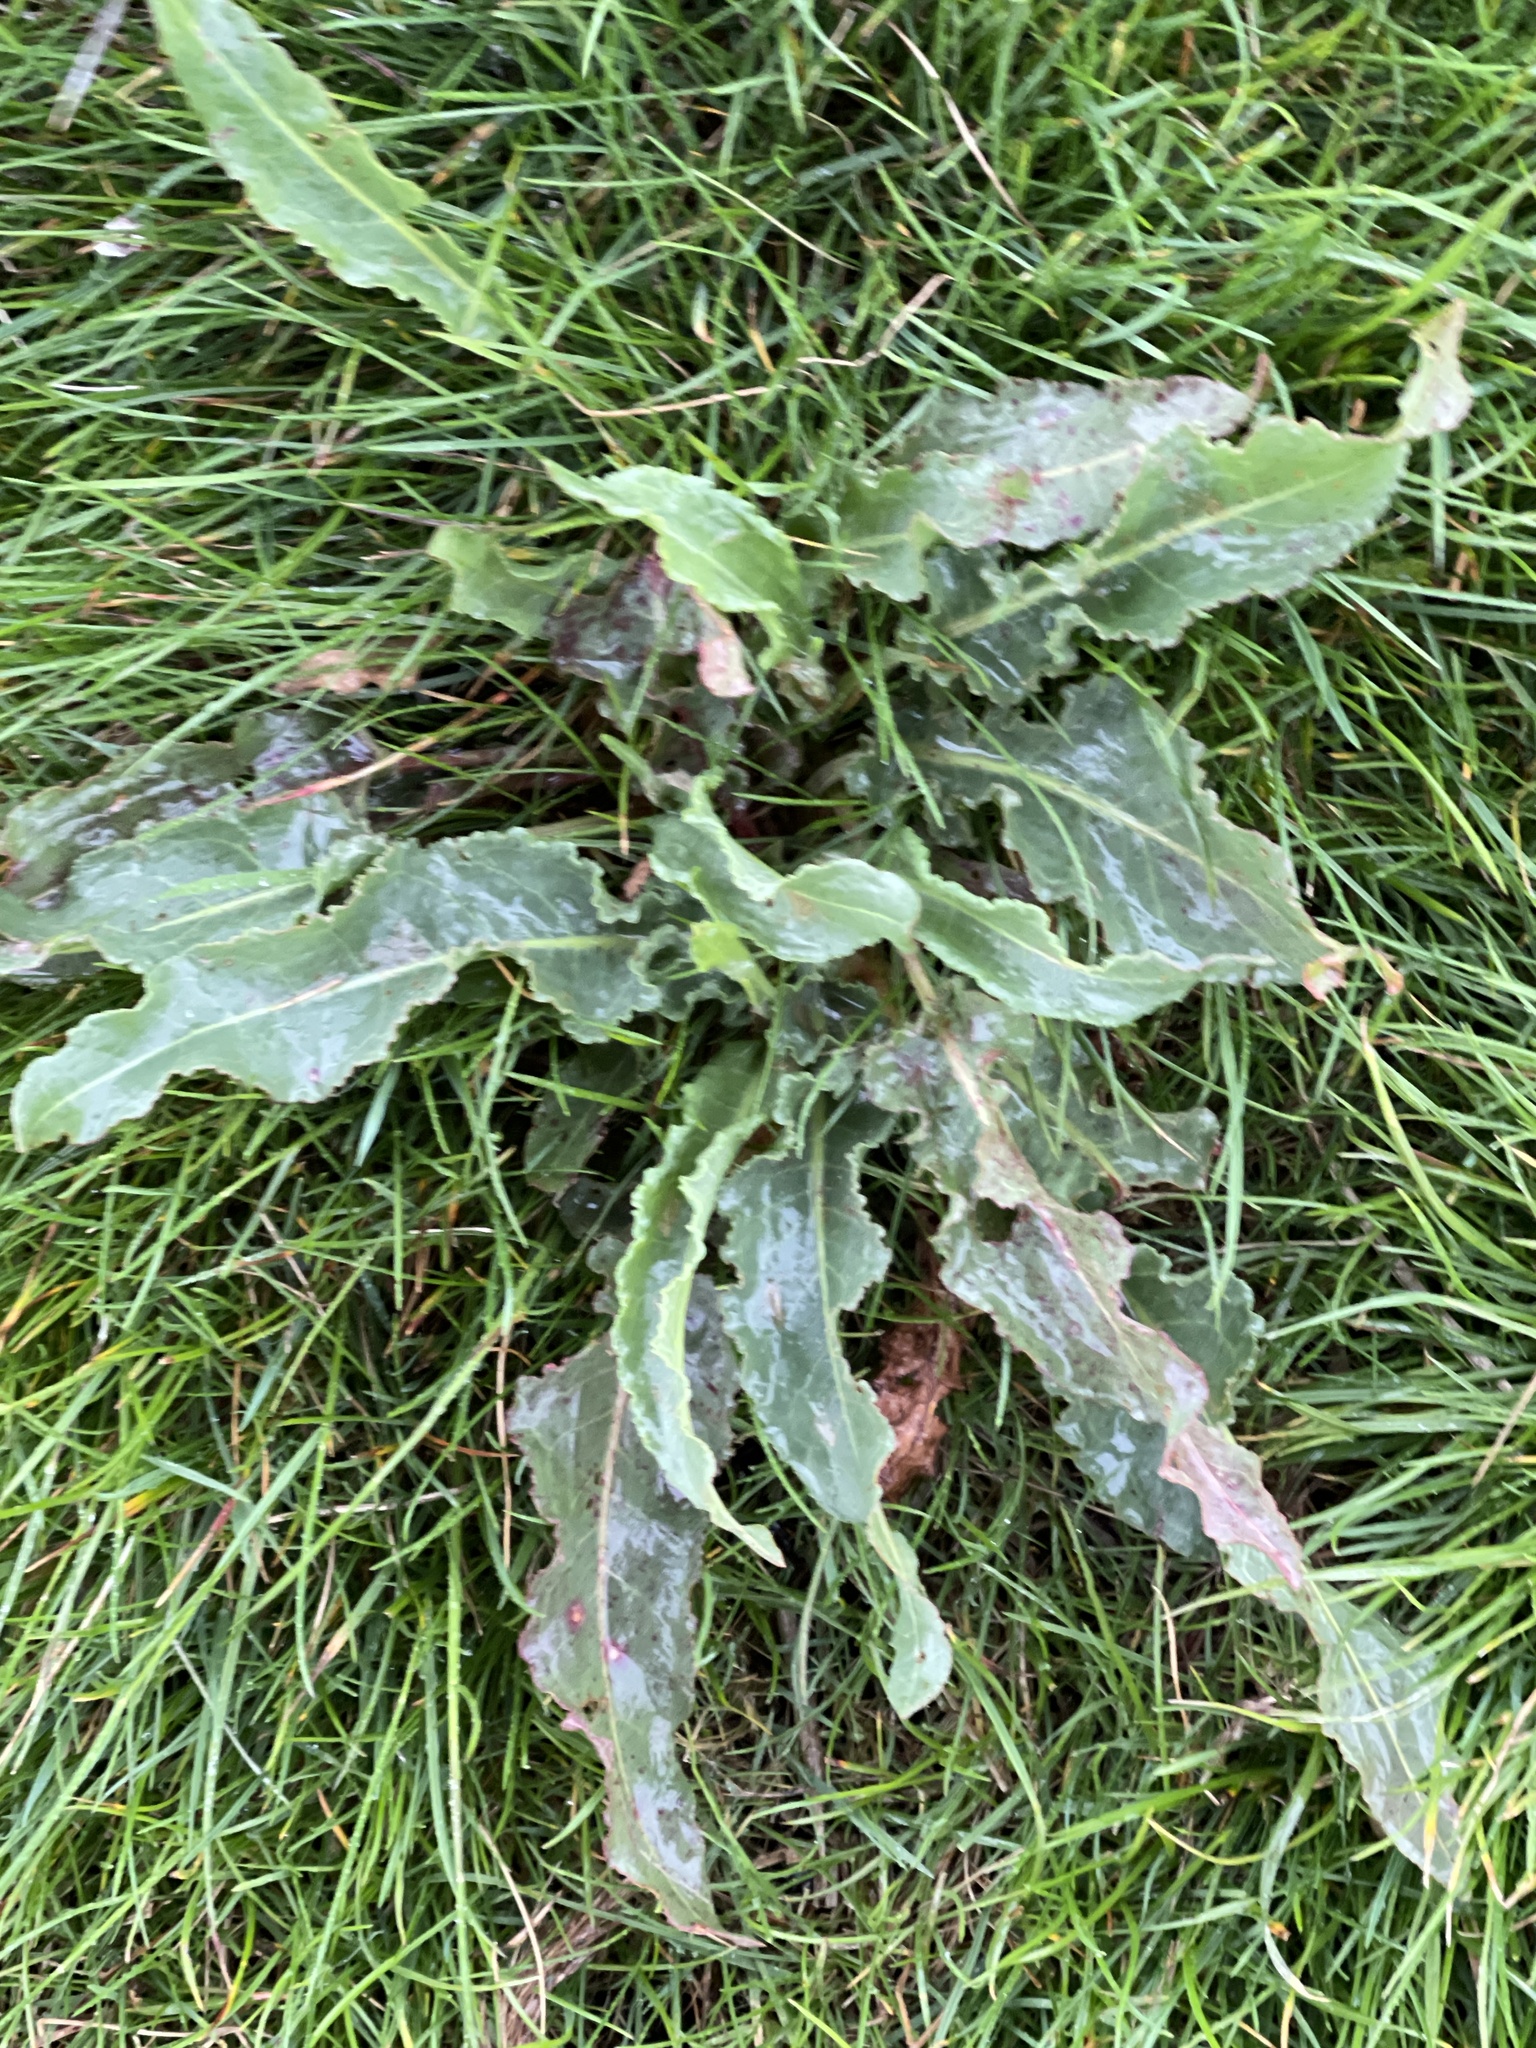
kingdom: Plantae
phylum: Tracheophyta
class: Magnoliopsida
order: Caryophyllales
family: Polygonaceae
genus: Rumex
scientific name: Rumex crispus
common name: Curled dock
